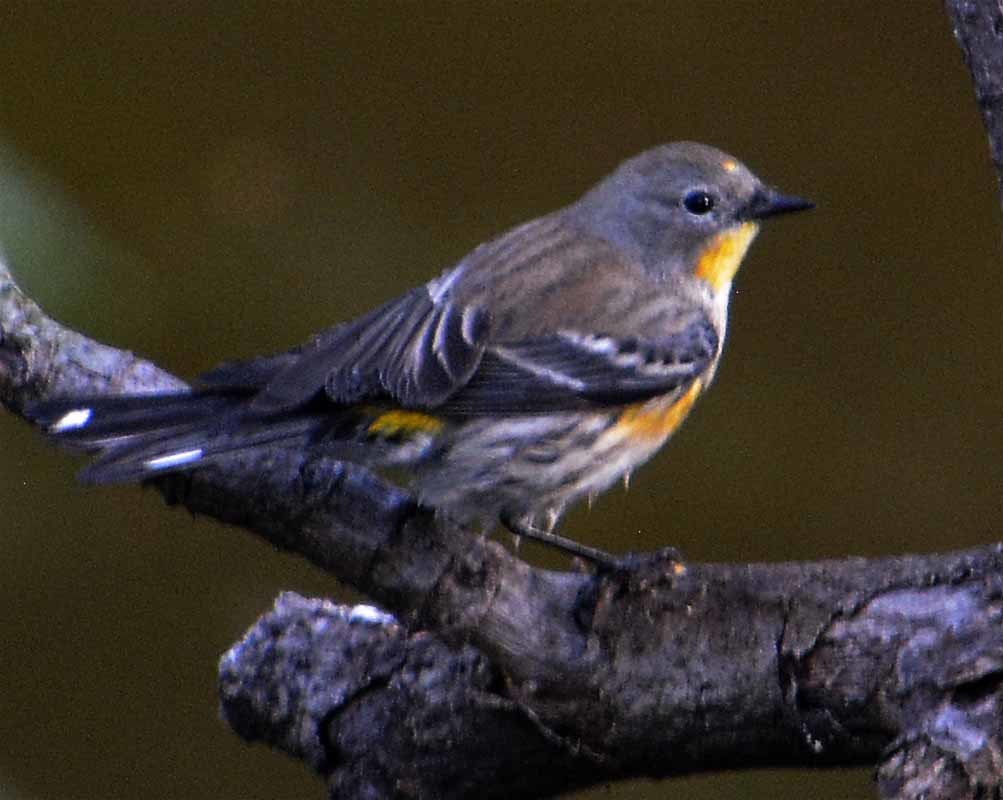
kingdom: Animalia
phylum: Chordata
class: Aves
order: Passeriformes
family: Parulidae
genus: Setophaga
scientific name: Setophaga coronata
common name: Myrtle warbler
